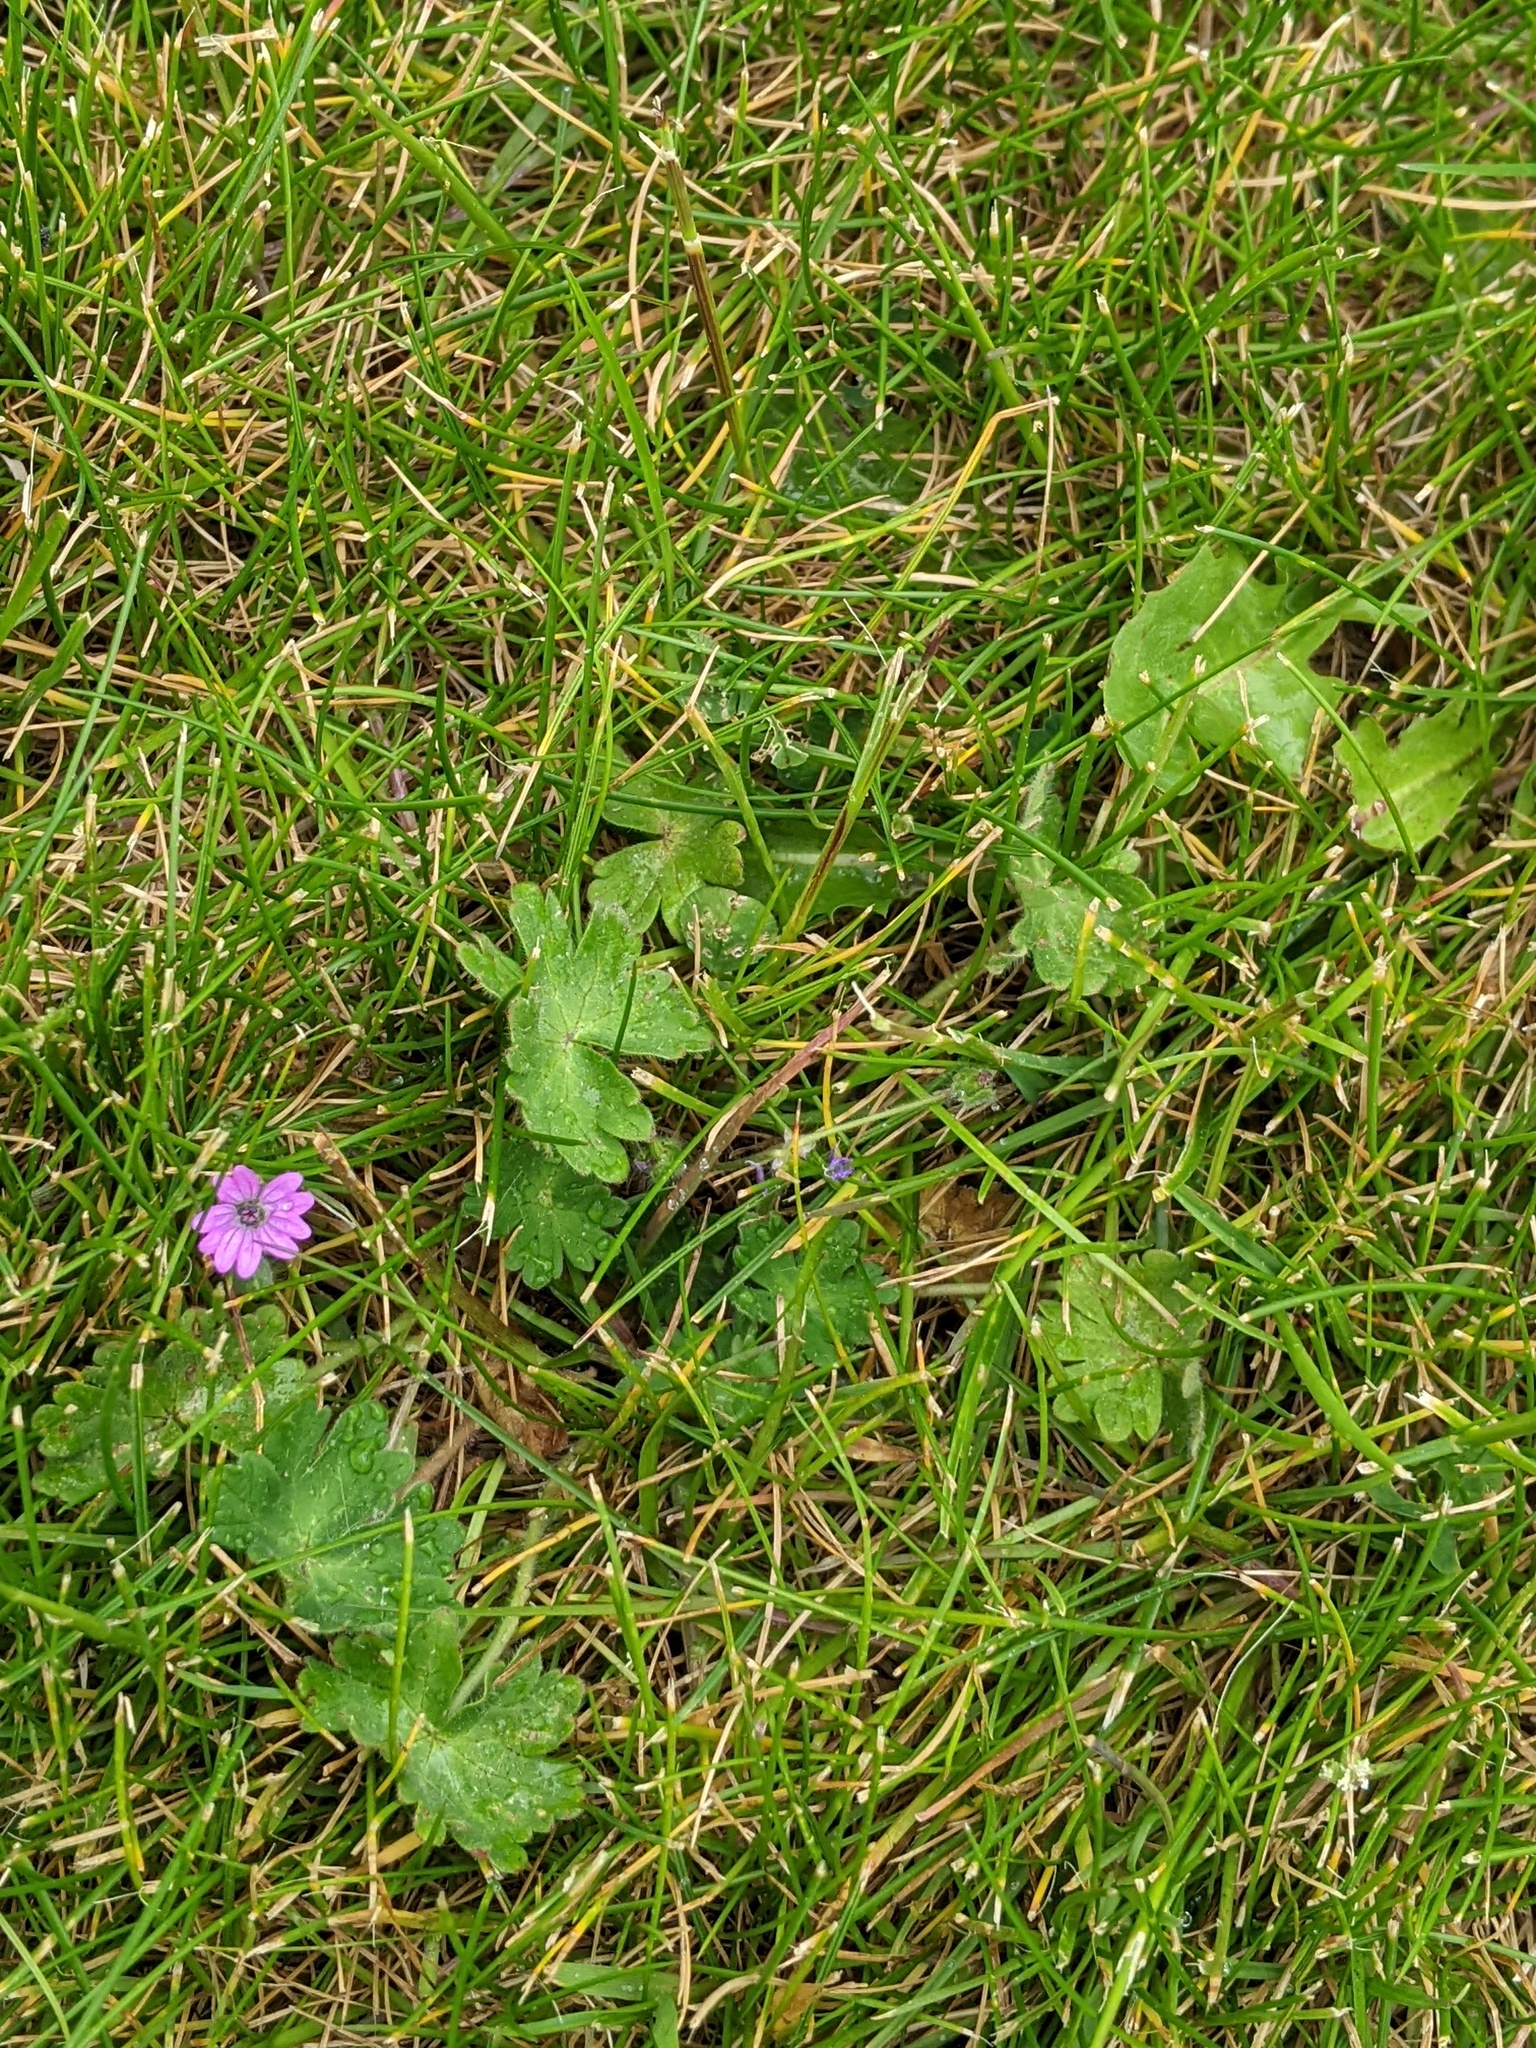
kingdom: Plantae
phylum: Tracheophyta
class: Magnoliopsida
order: Geraniales
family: Geraniaceae
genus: Geranium
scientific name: Geranium molle
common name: Dove's-foot crane's-bill
